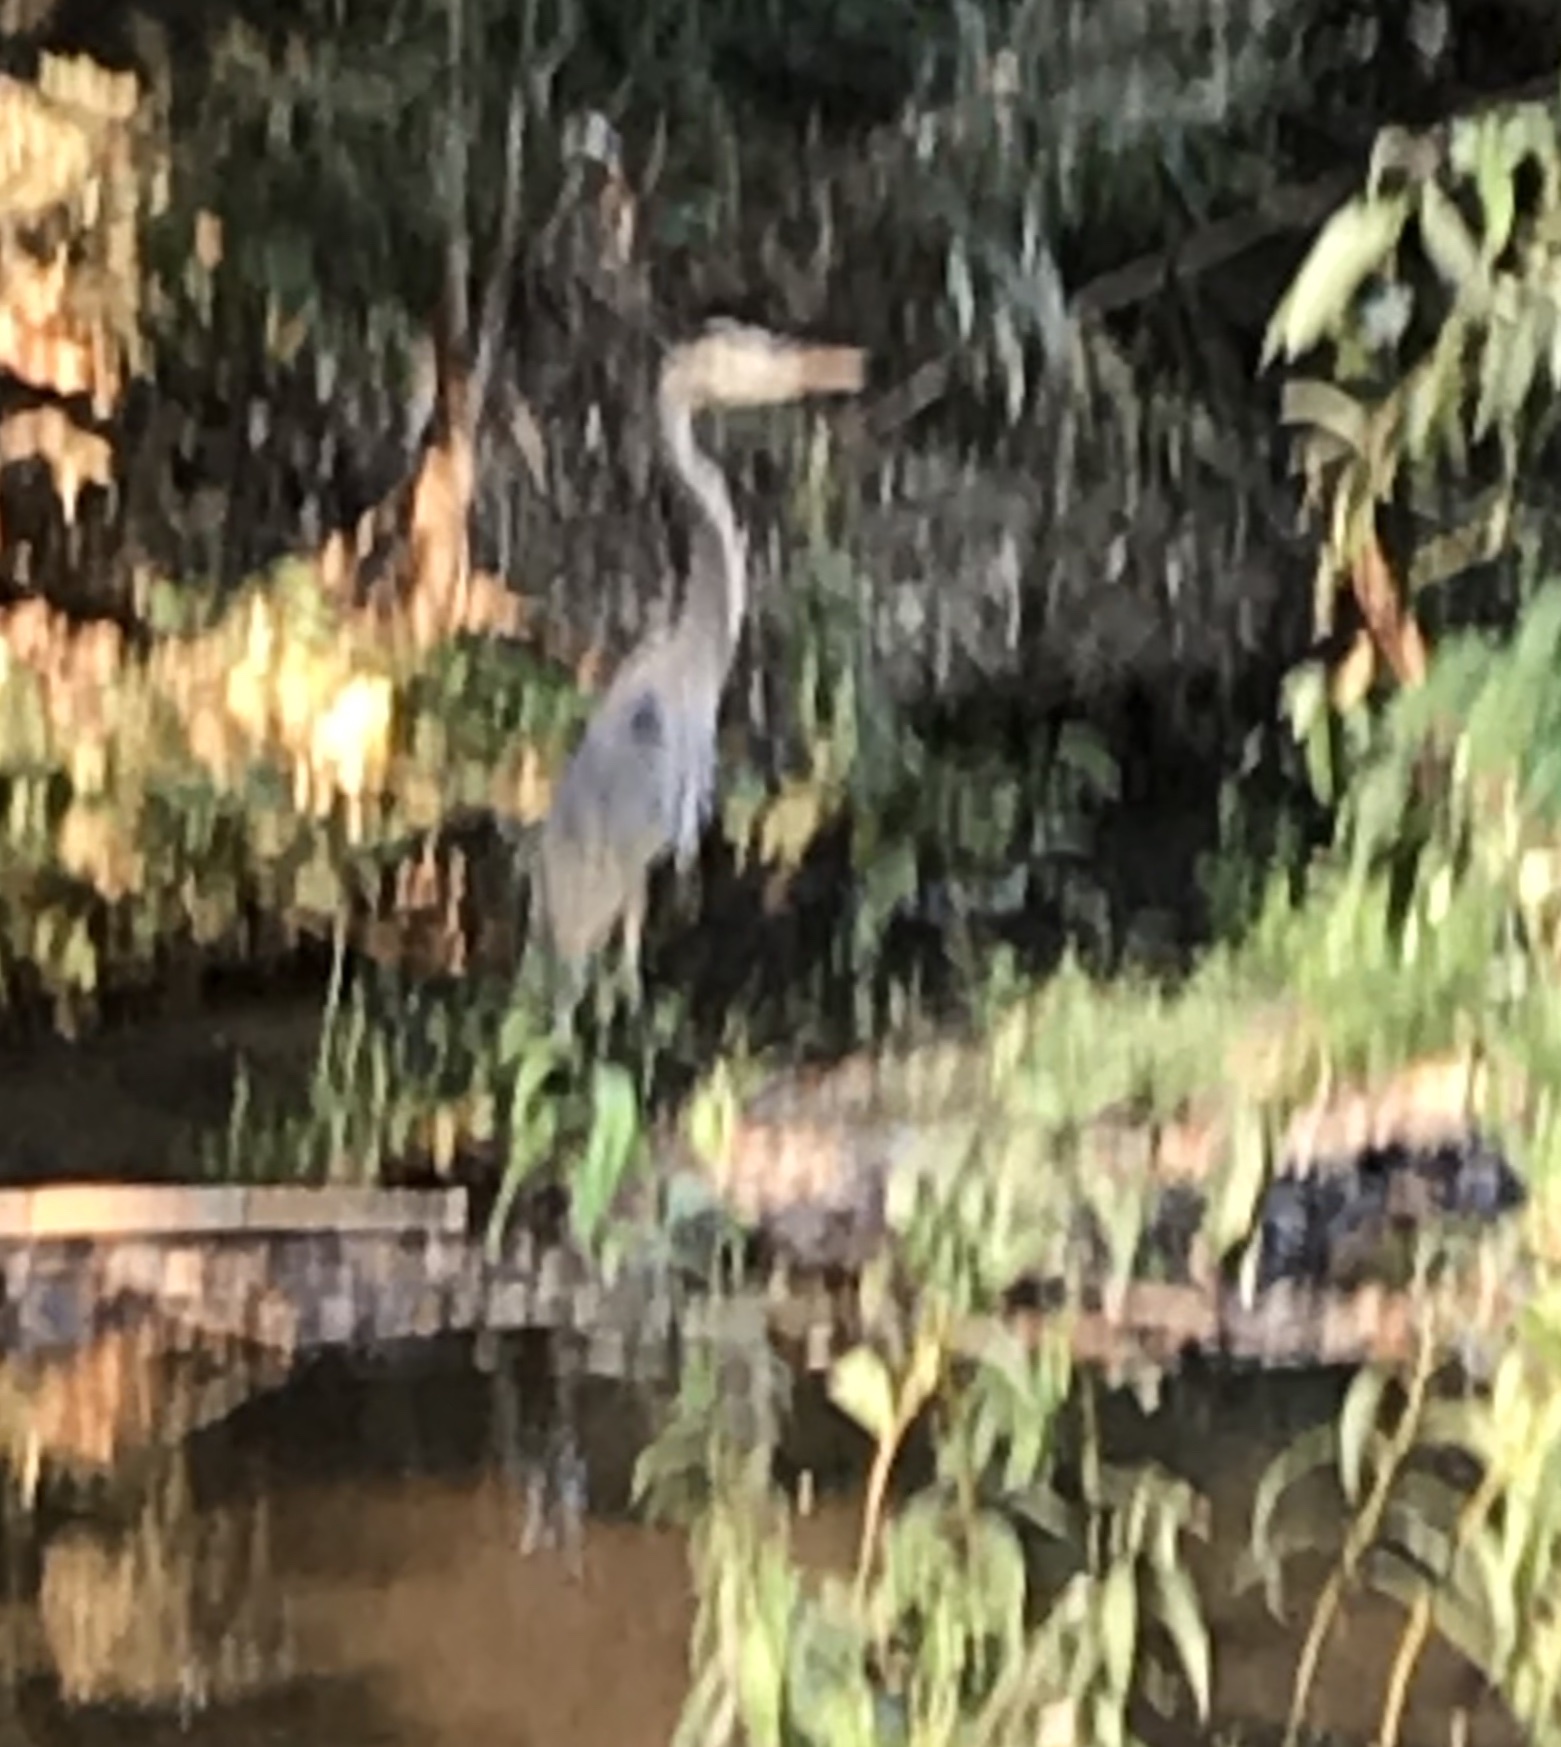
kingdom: Animalia
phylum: Chordata
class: Aves
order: Pelecaniformes
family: Ardeidae
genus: Ardea
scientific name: Ardea herodias
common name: Great blue heron
